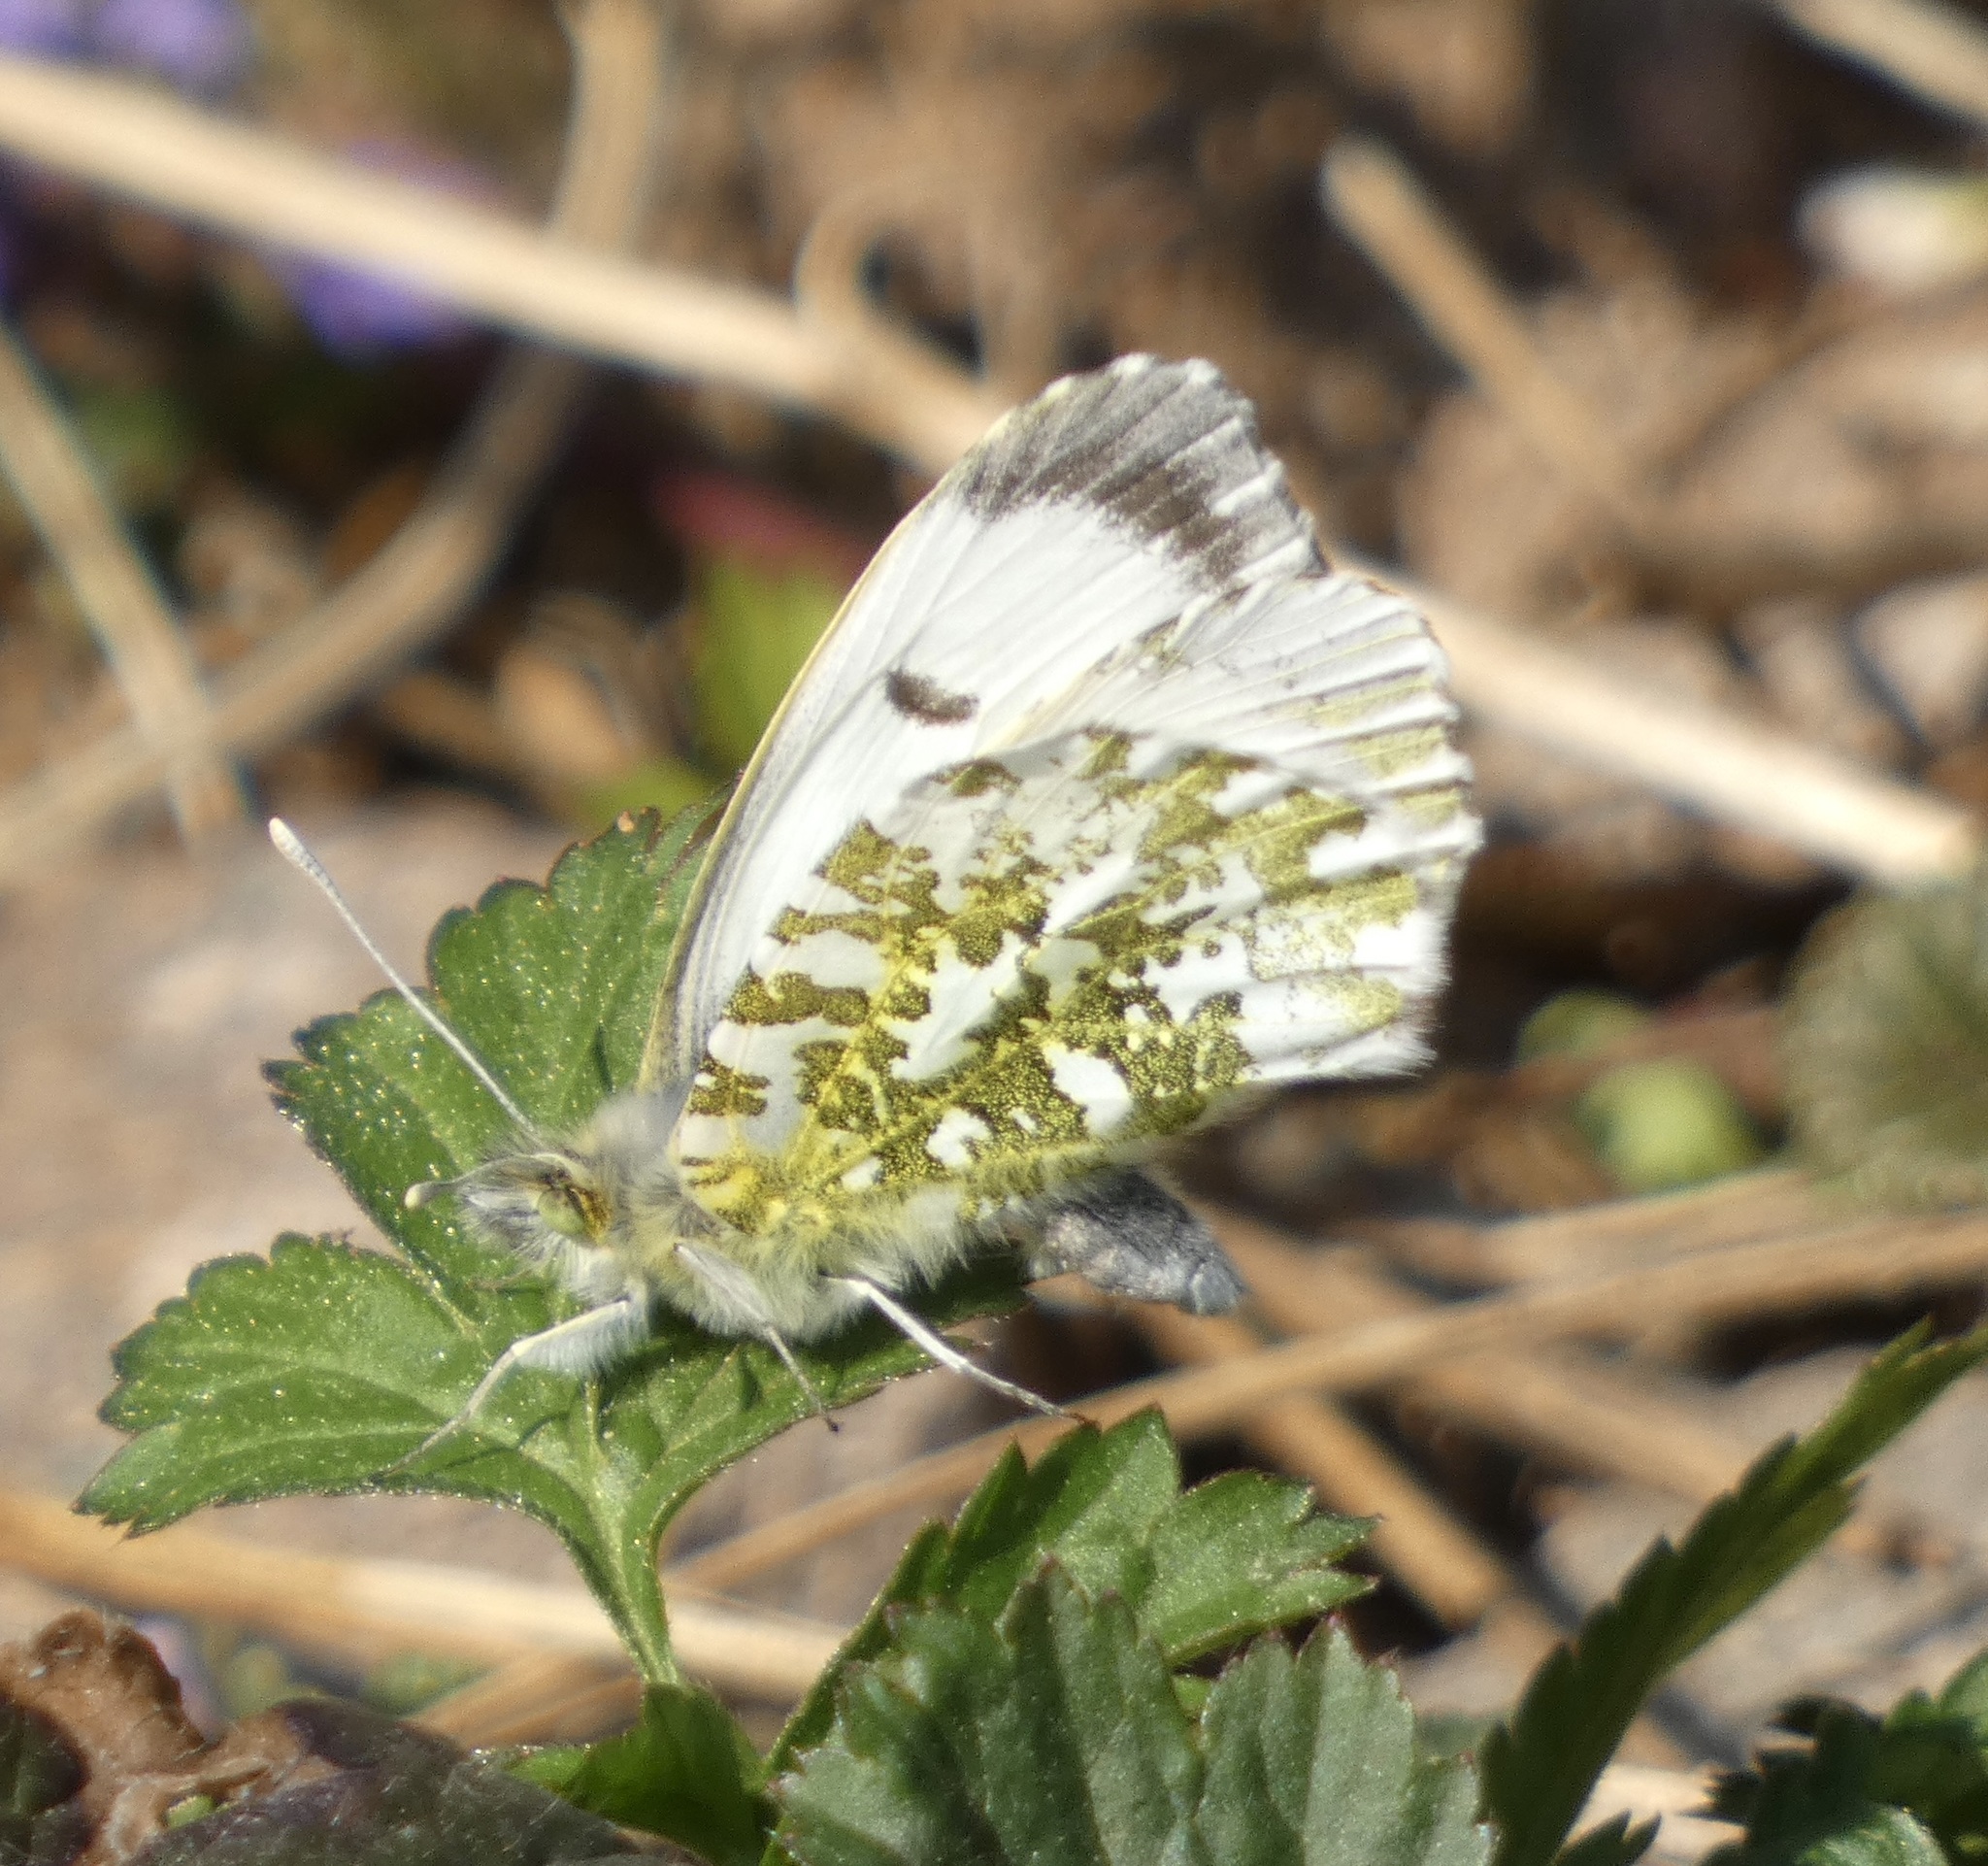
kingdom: Animalia
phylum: Arthropoda
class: Insecta
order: Lepidoptera
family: Pieridae
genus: Anthocharis
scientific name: Anthocharis cardamines
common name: Orange-tip
